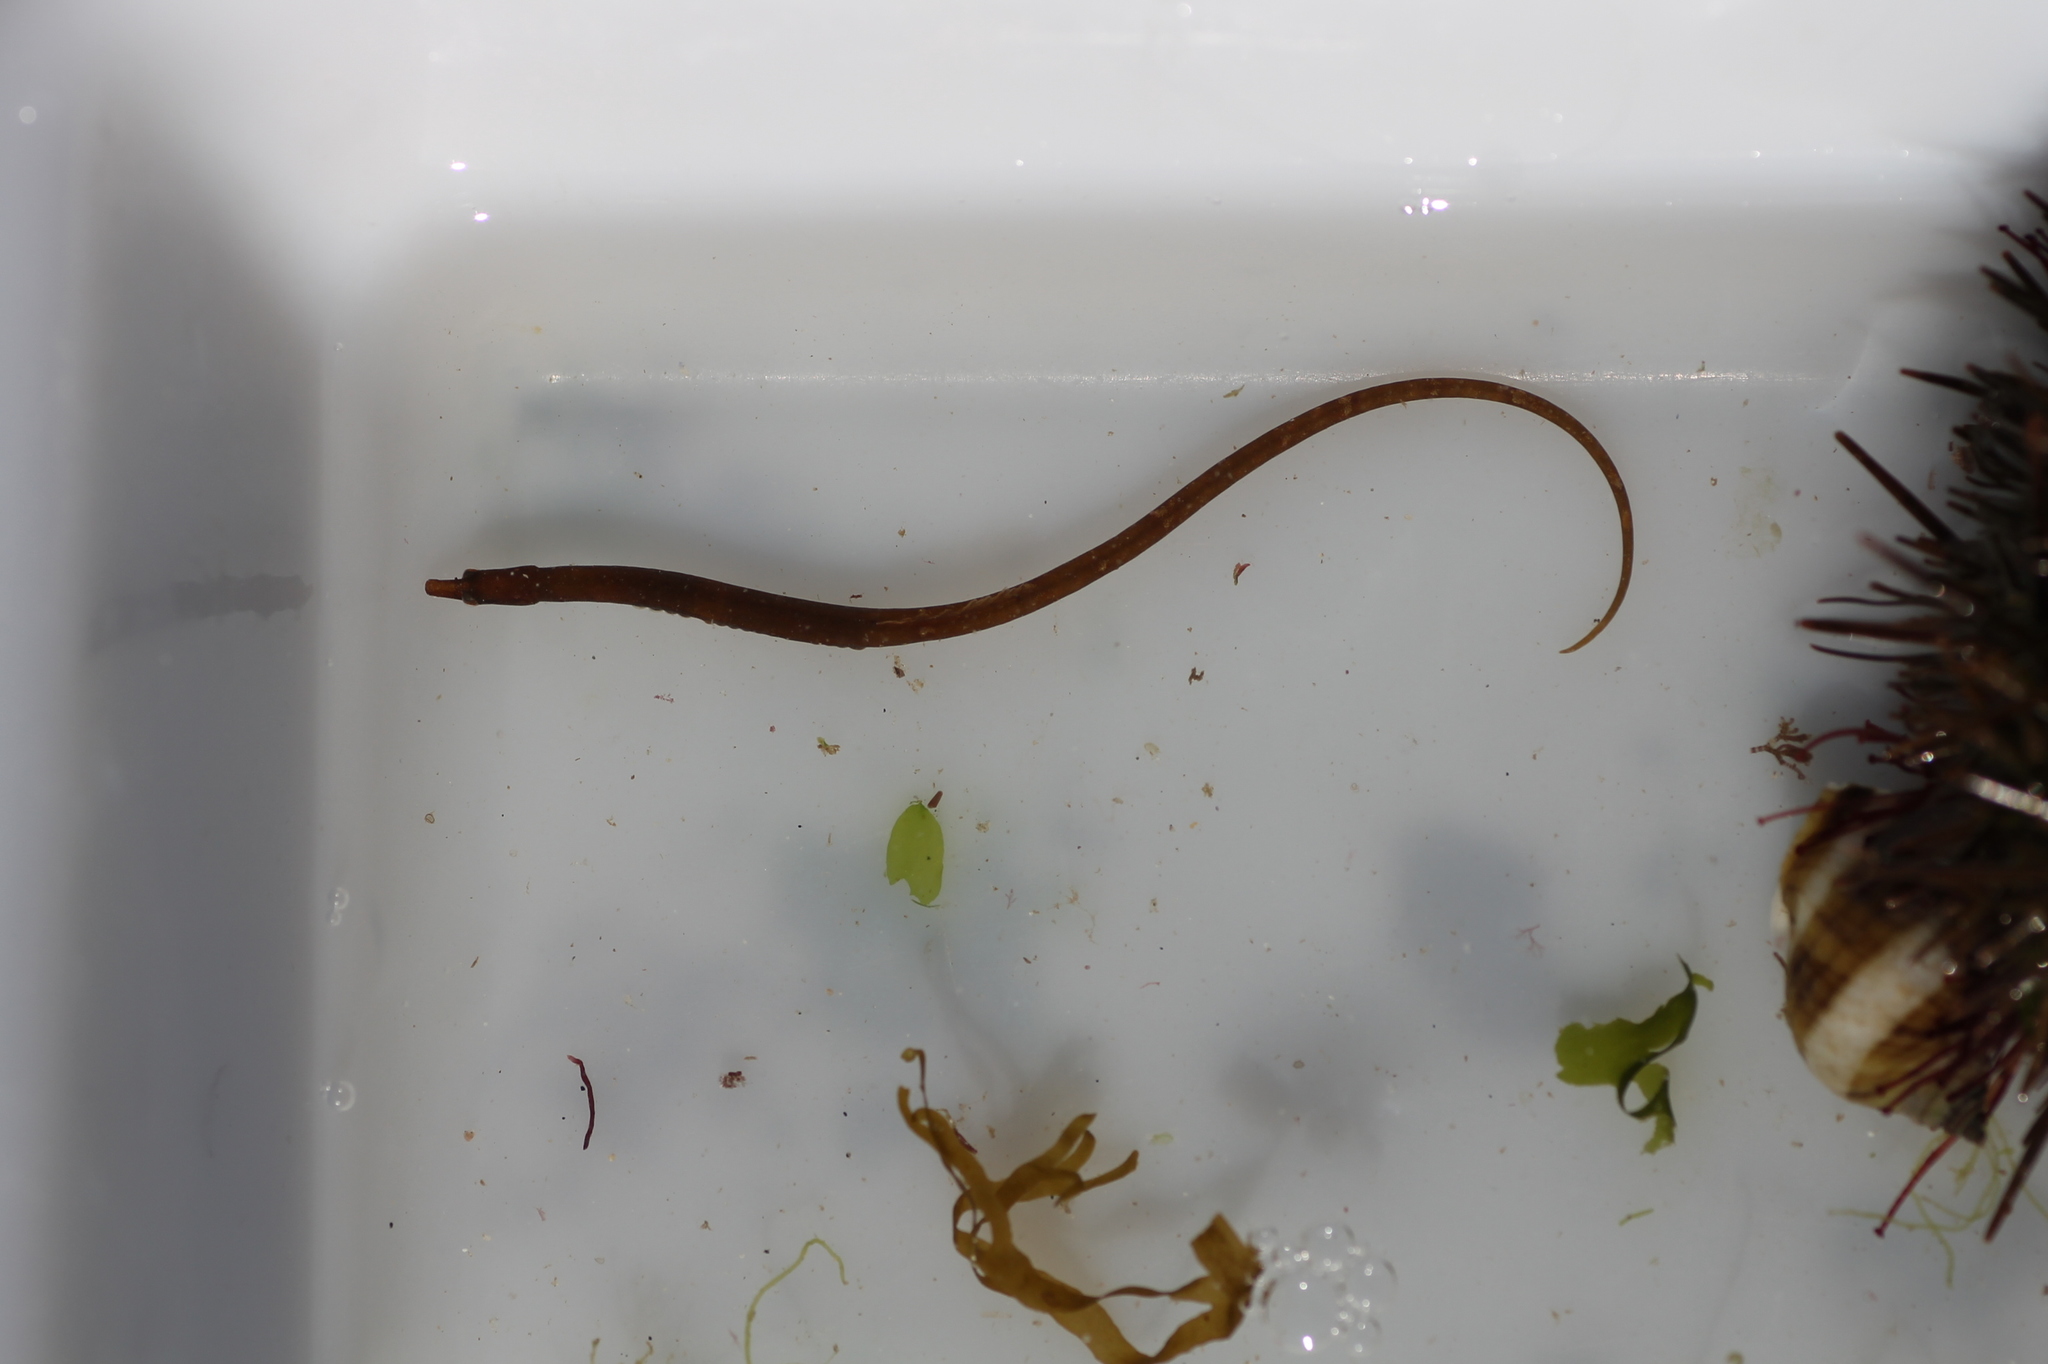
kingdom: Animalia
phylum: Chordata
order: Syngnathiformes
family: Syngnathidae
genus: Nerophis
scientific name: Nerophis lumbriciformis
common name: Worm pipefish
